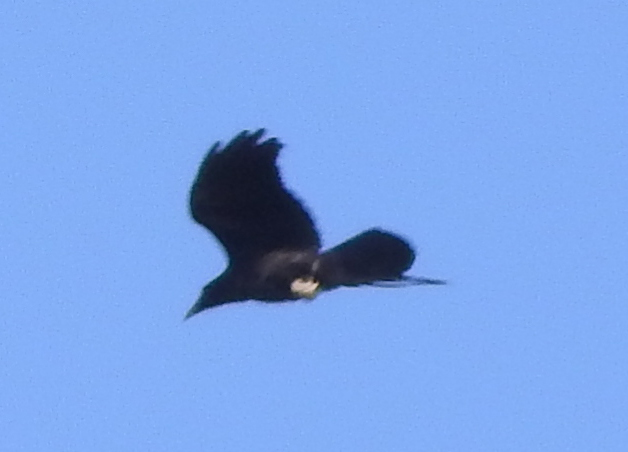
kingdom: Animalia
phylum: Chordata
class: Aves
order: Passeriformes
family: Corvidae
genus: Corvus
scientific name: Corvus corax
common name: Common raven
